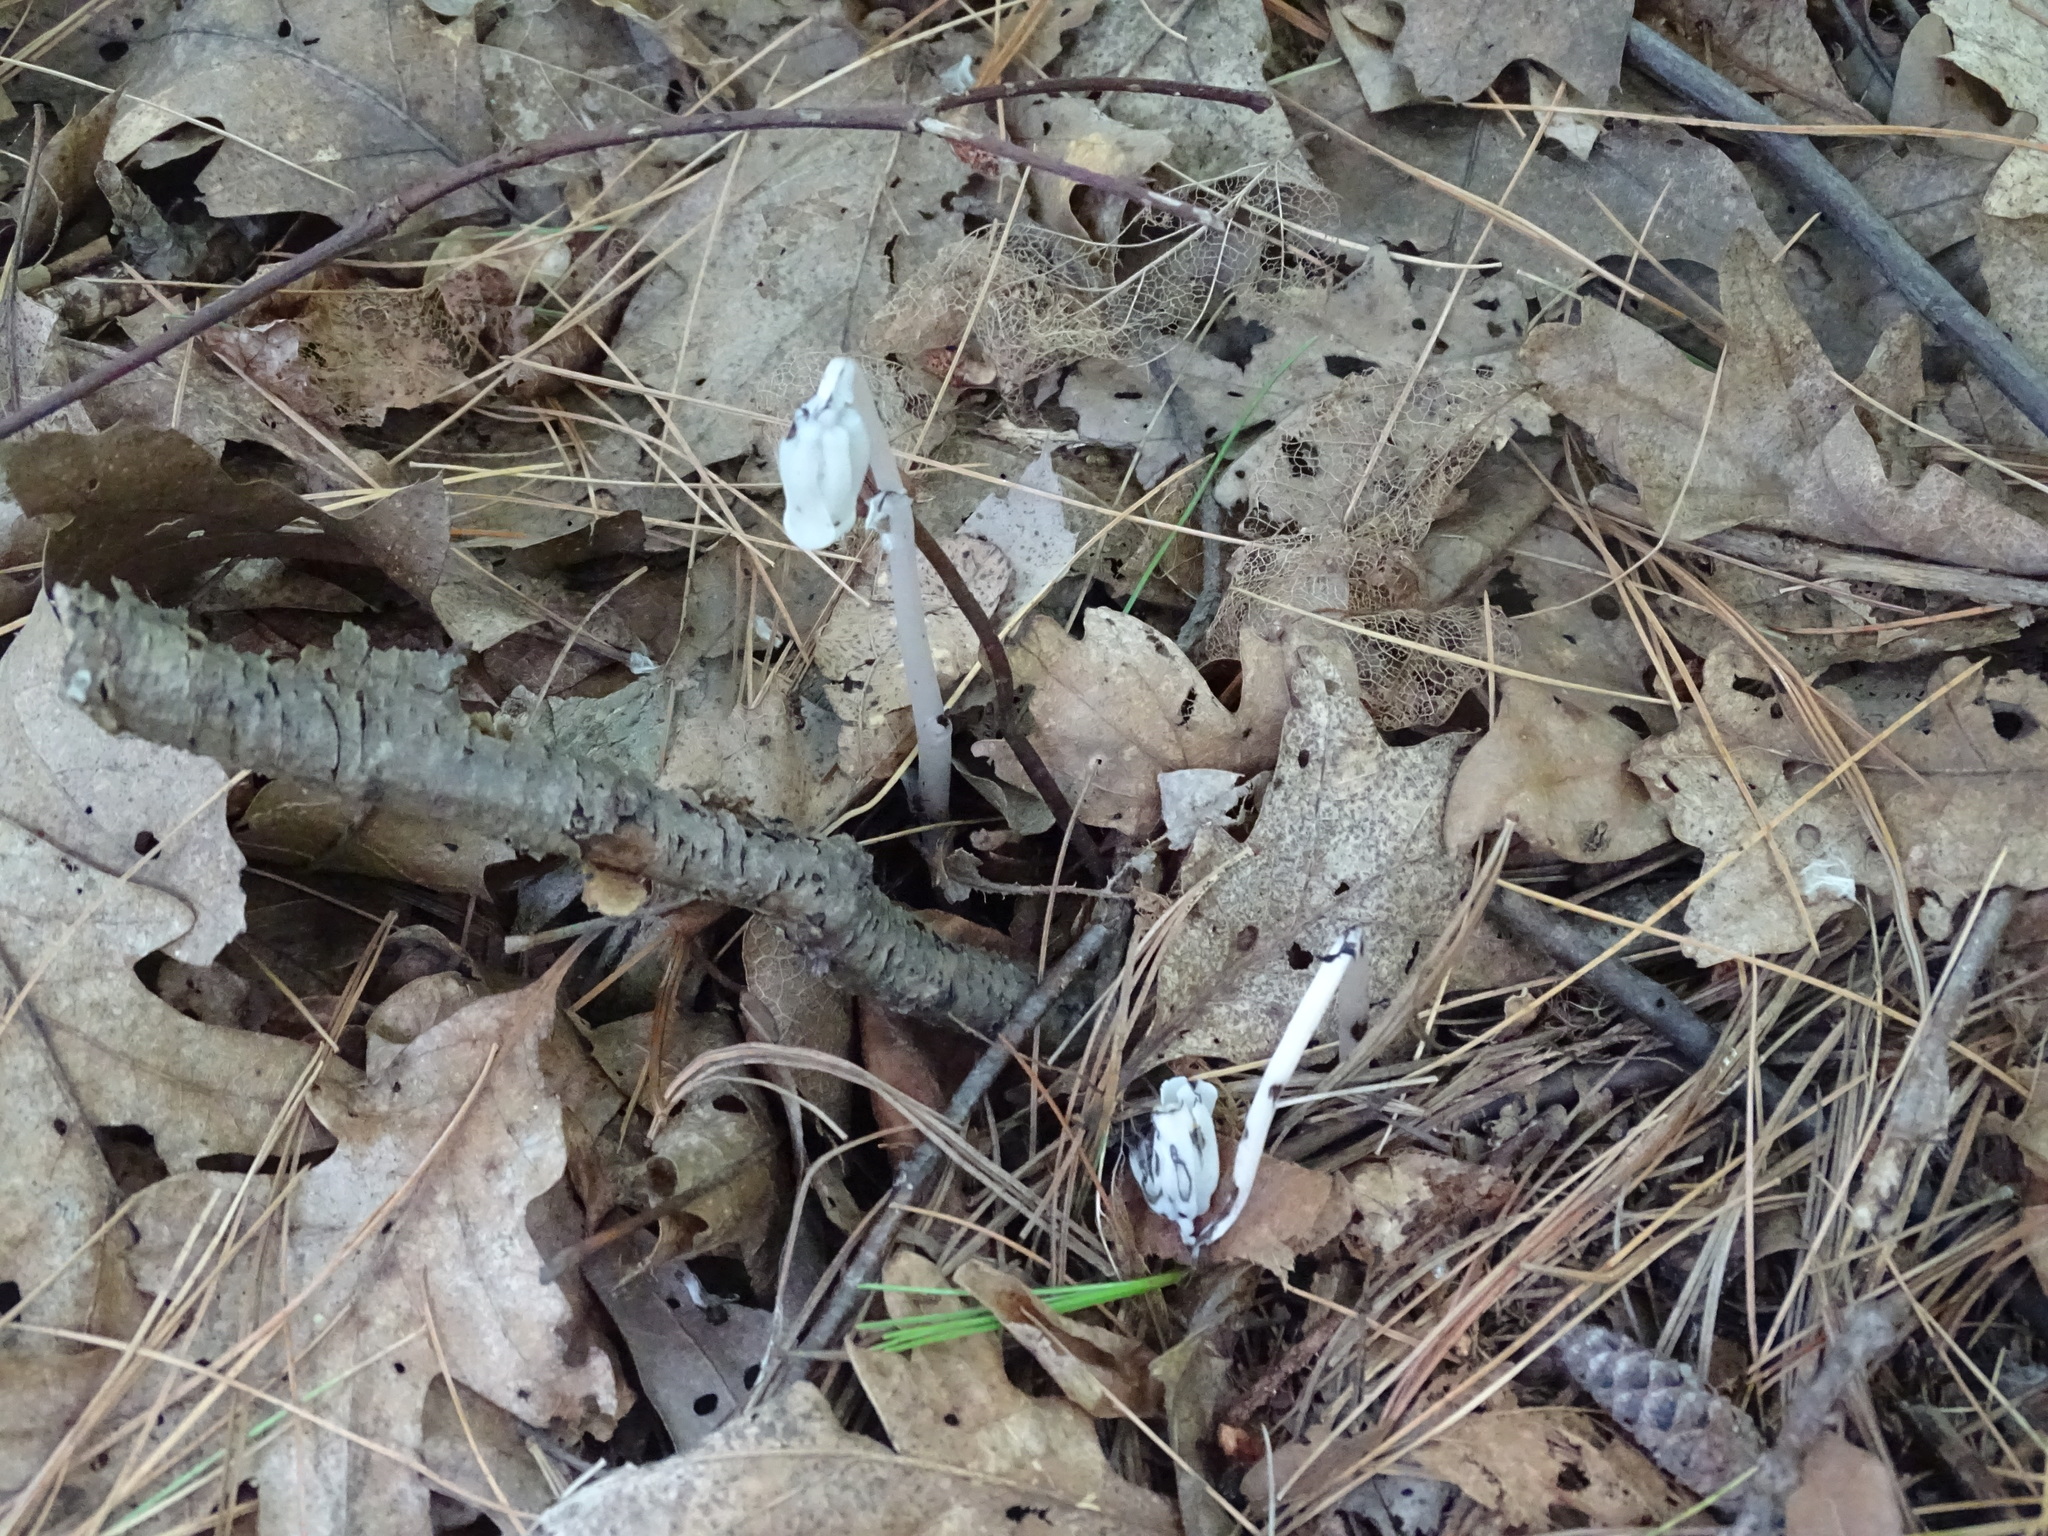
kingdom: Plantae
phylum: Tracheophyta
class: Magnoliopsida
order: Ericales
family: Ericaceae
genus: Monotropa
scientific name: Monotropa uniflora
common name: Convulsion root
